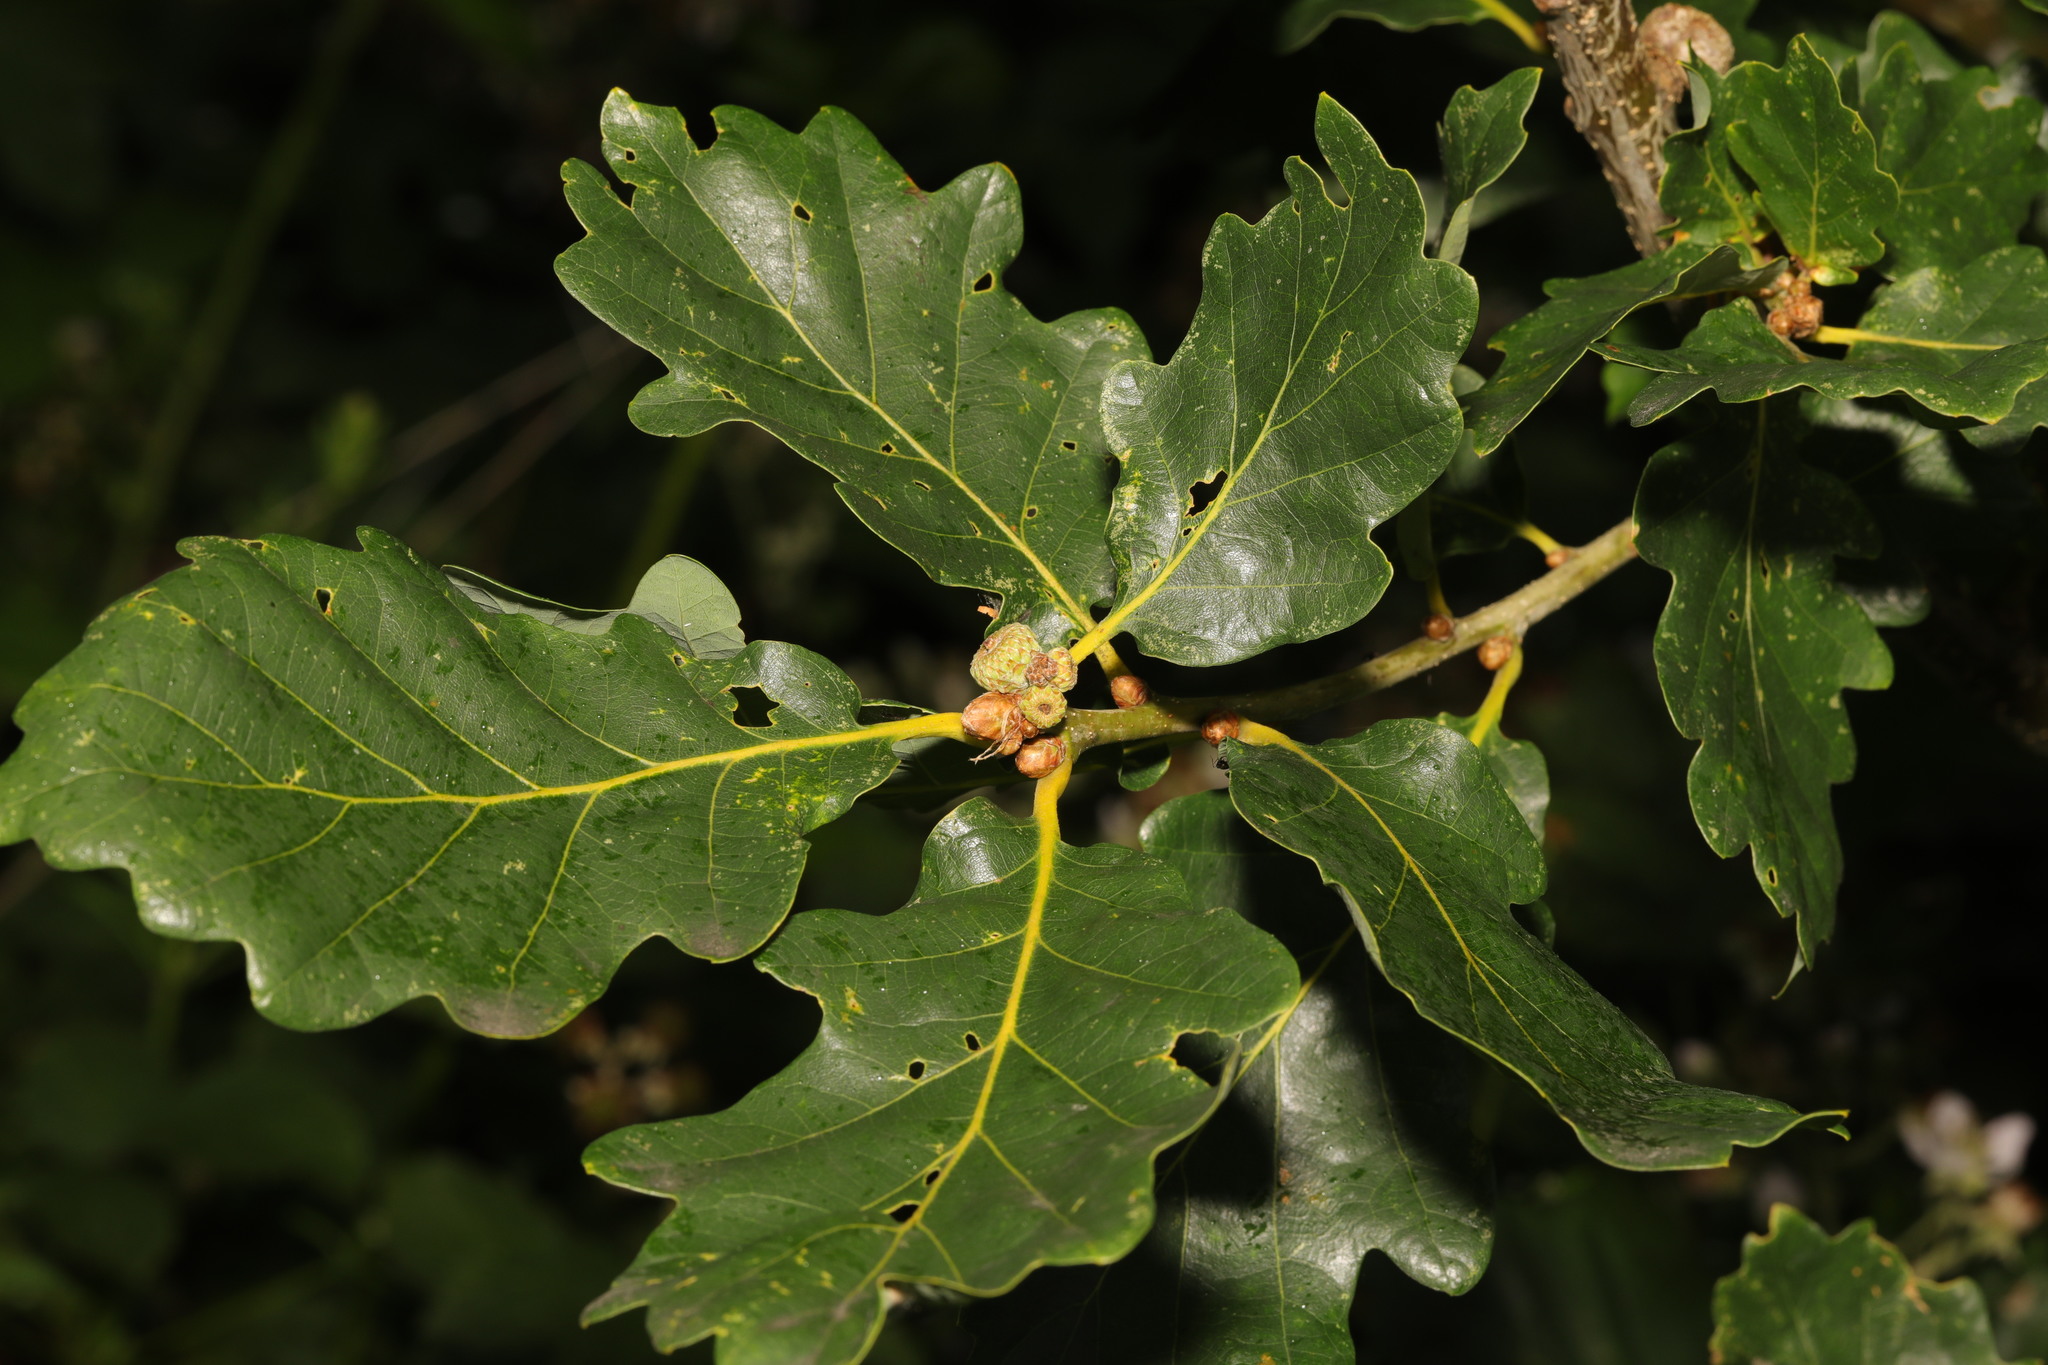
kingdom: Plantae
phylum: Tracheophyta
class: Magnoliopsida
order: Fagales
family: Fagaceae
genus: Quercus
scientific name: Quercus robur
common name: Pedunculate oak
